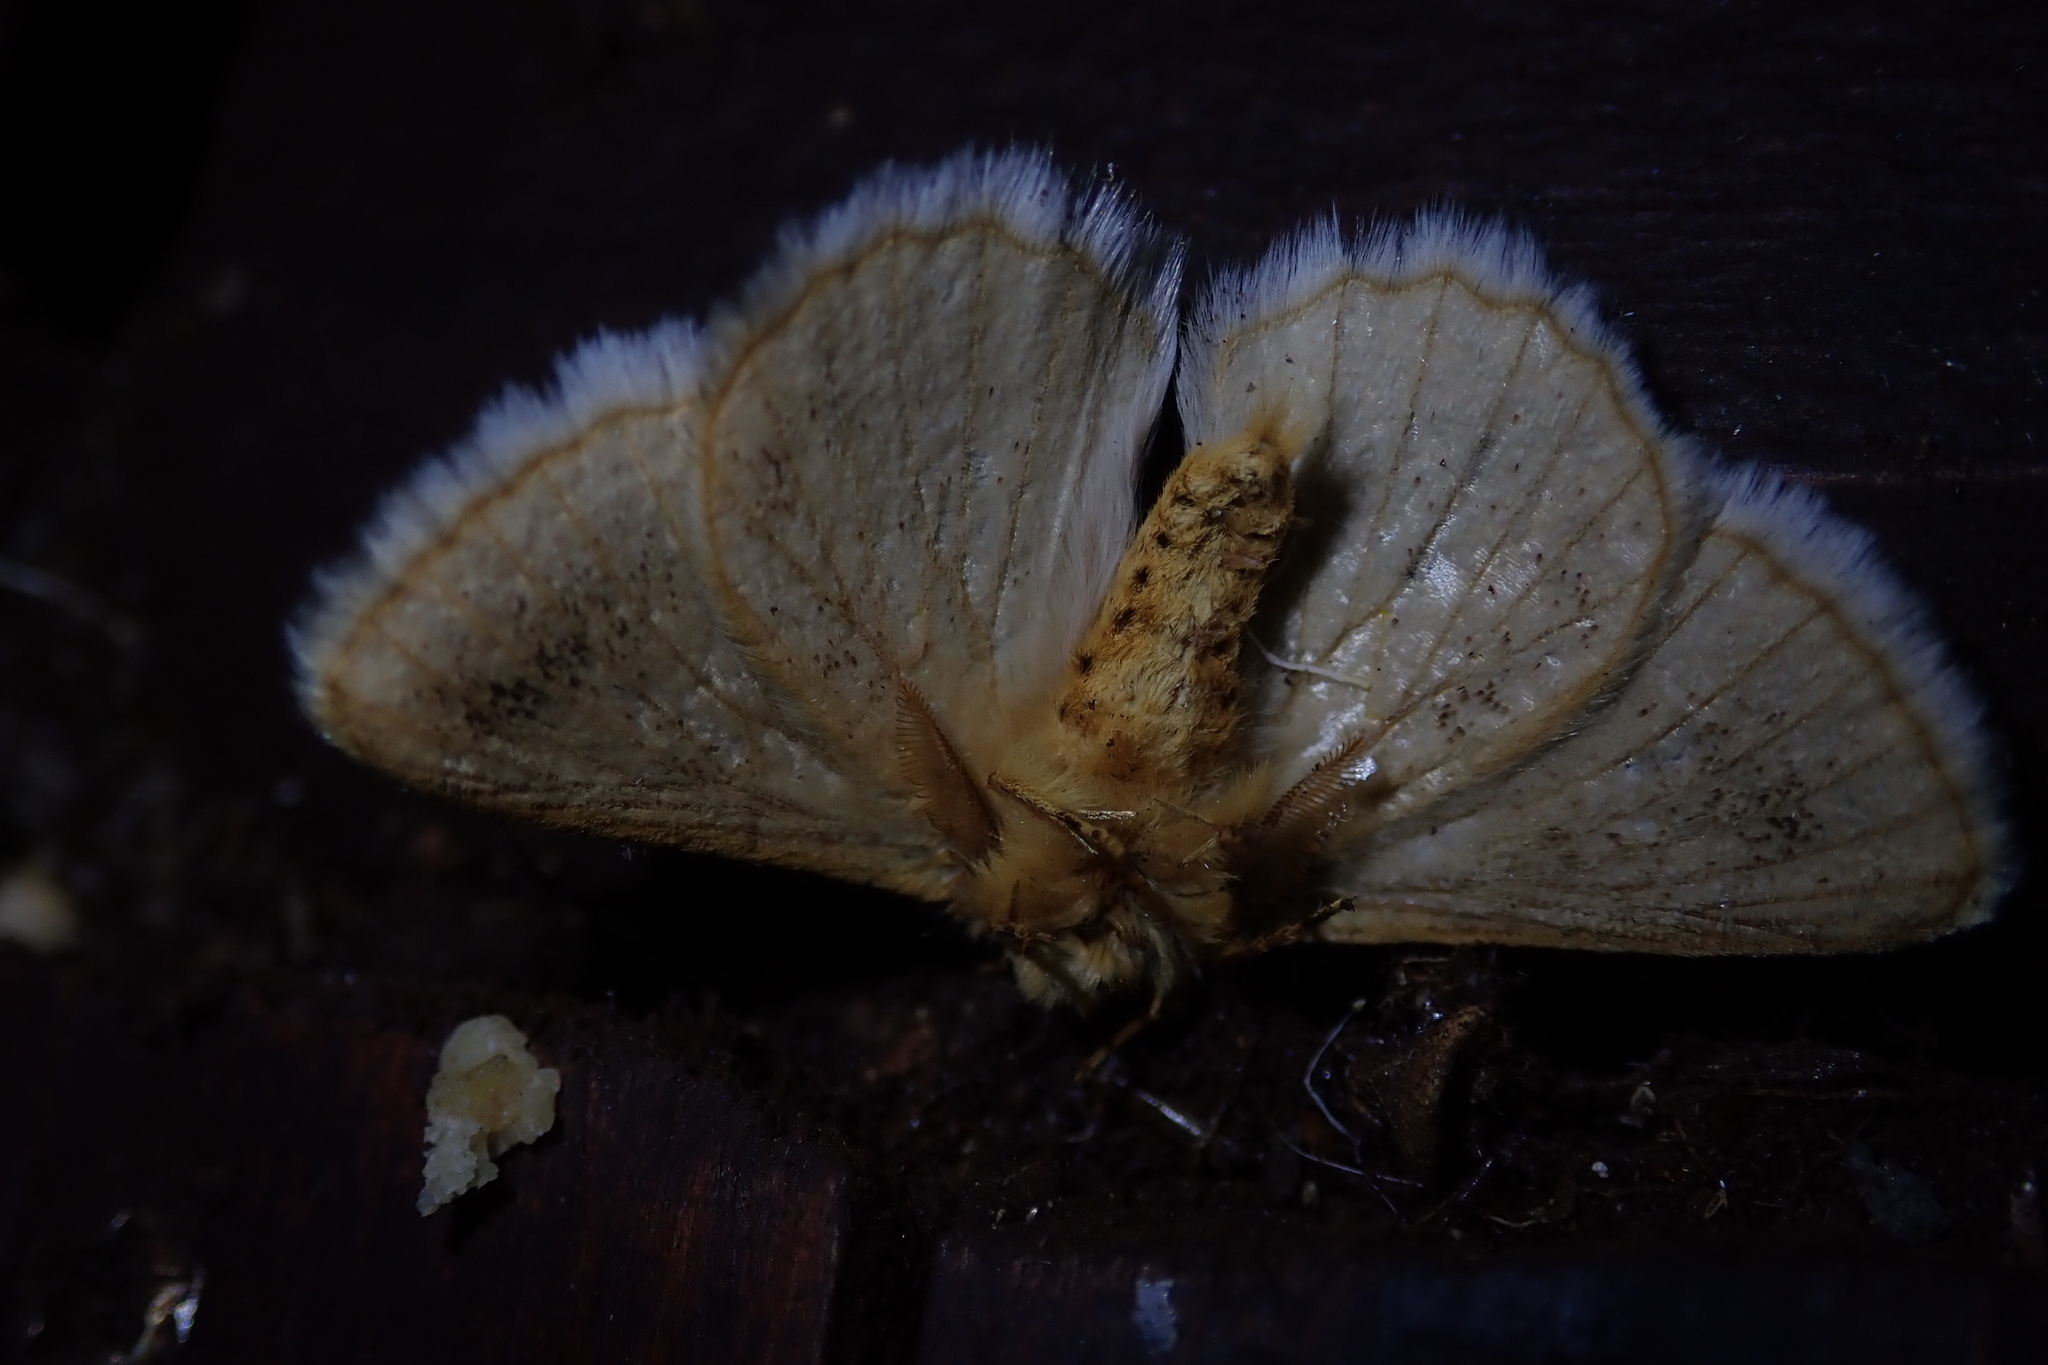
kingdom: Animalia
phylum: Arthropoda
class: Insecta
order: Lepidoptera
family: Eupterotidae
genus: Phiala
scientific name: Phiala costipuncta
